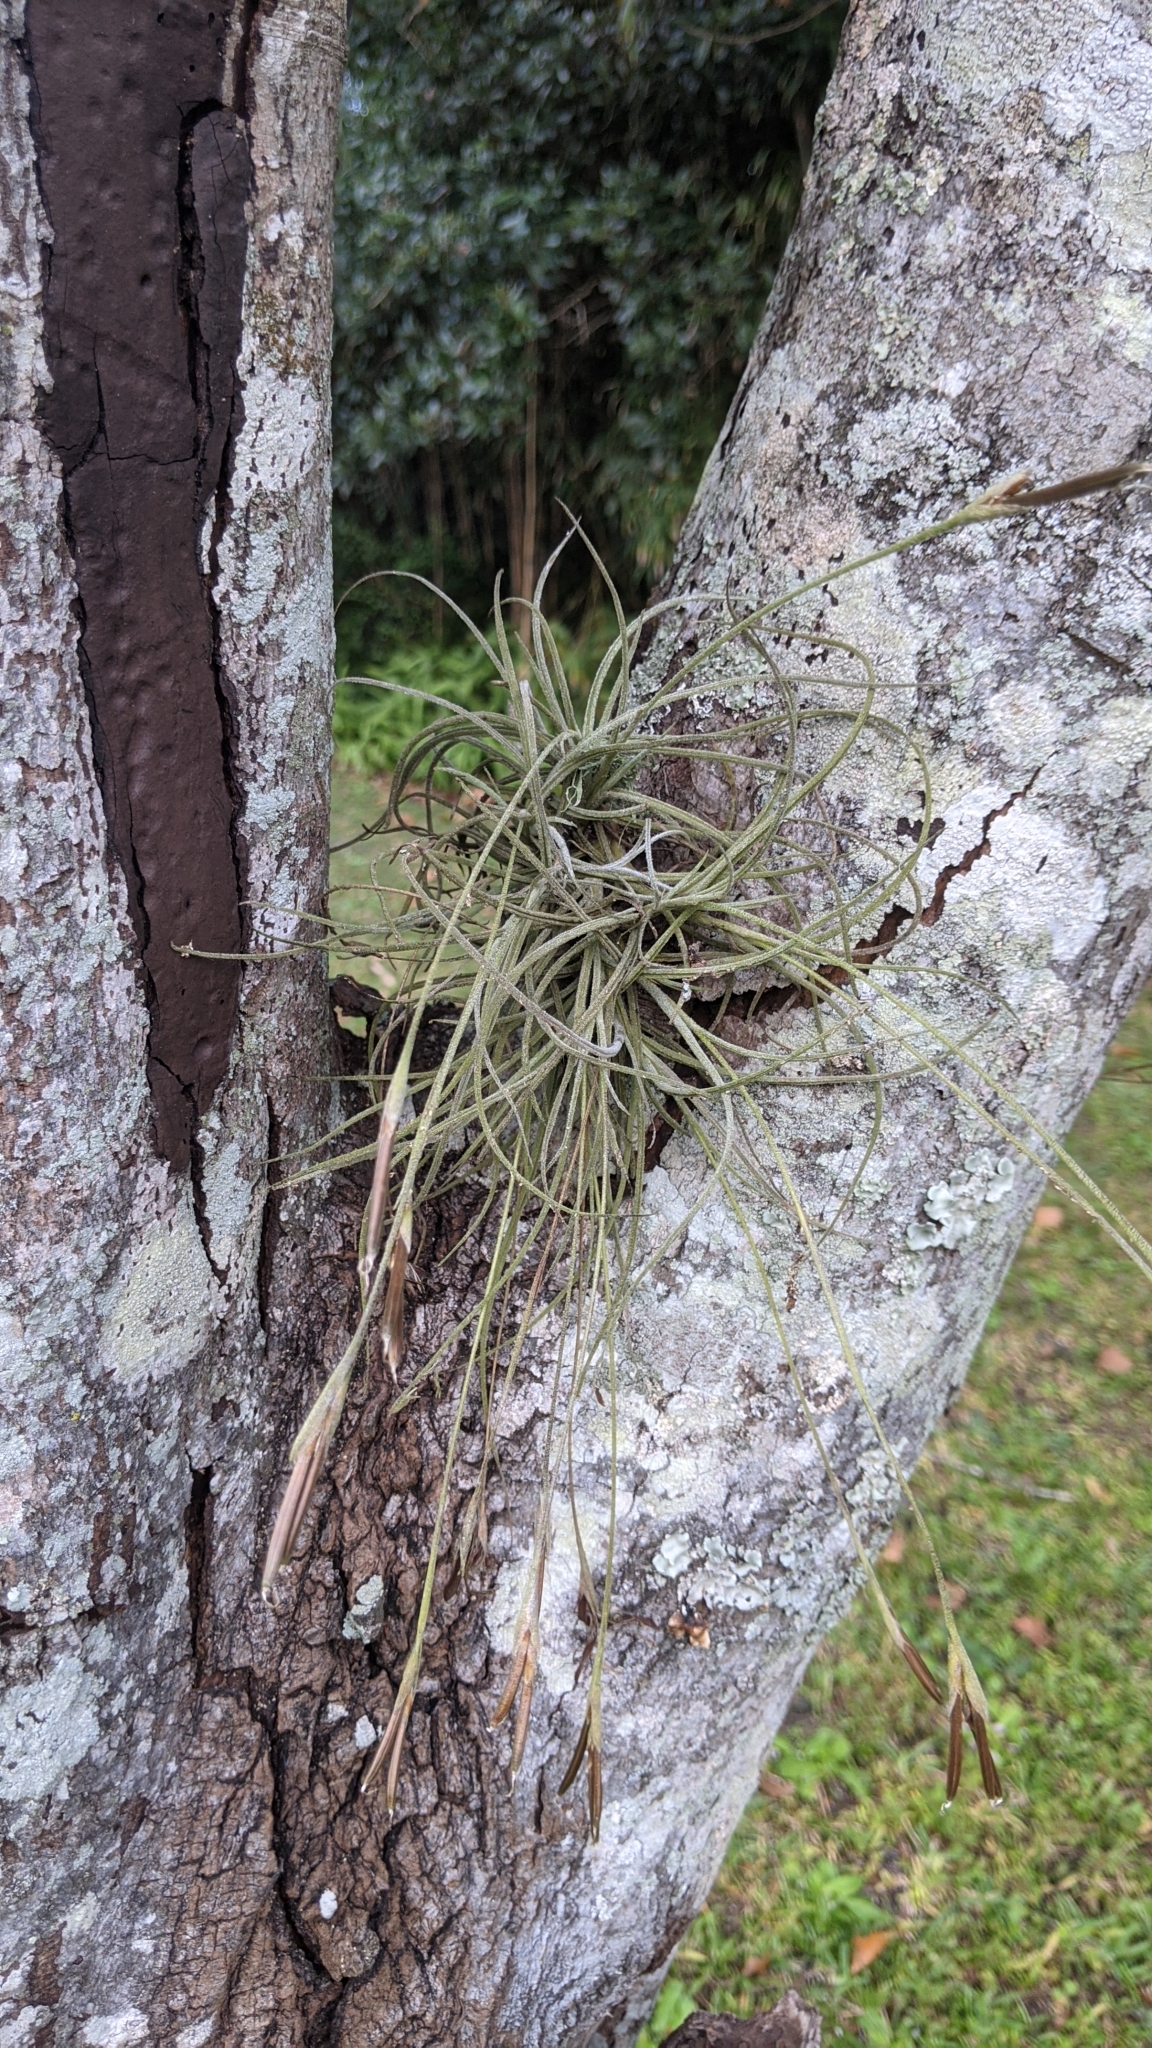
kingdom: Plantae
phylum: Tracheophyta
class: Liliopsida
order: Poales
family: Bromeliaceae
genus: Tillandsia
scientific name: Tillandsia recurvata
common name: Small ballmoss
